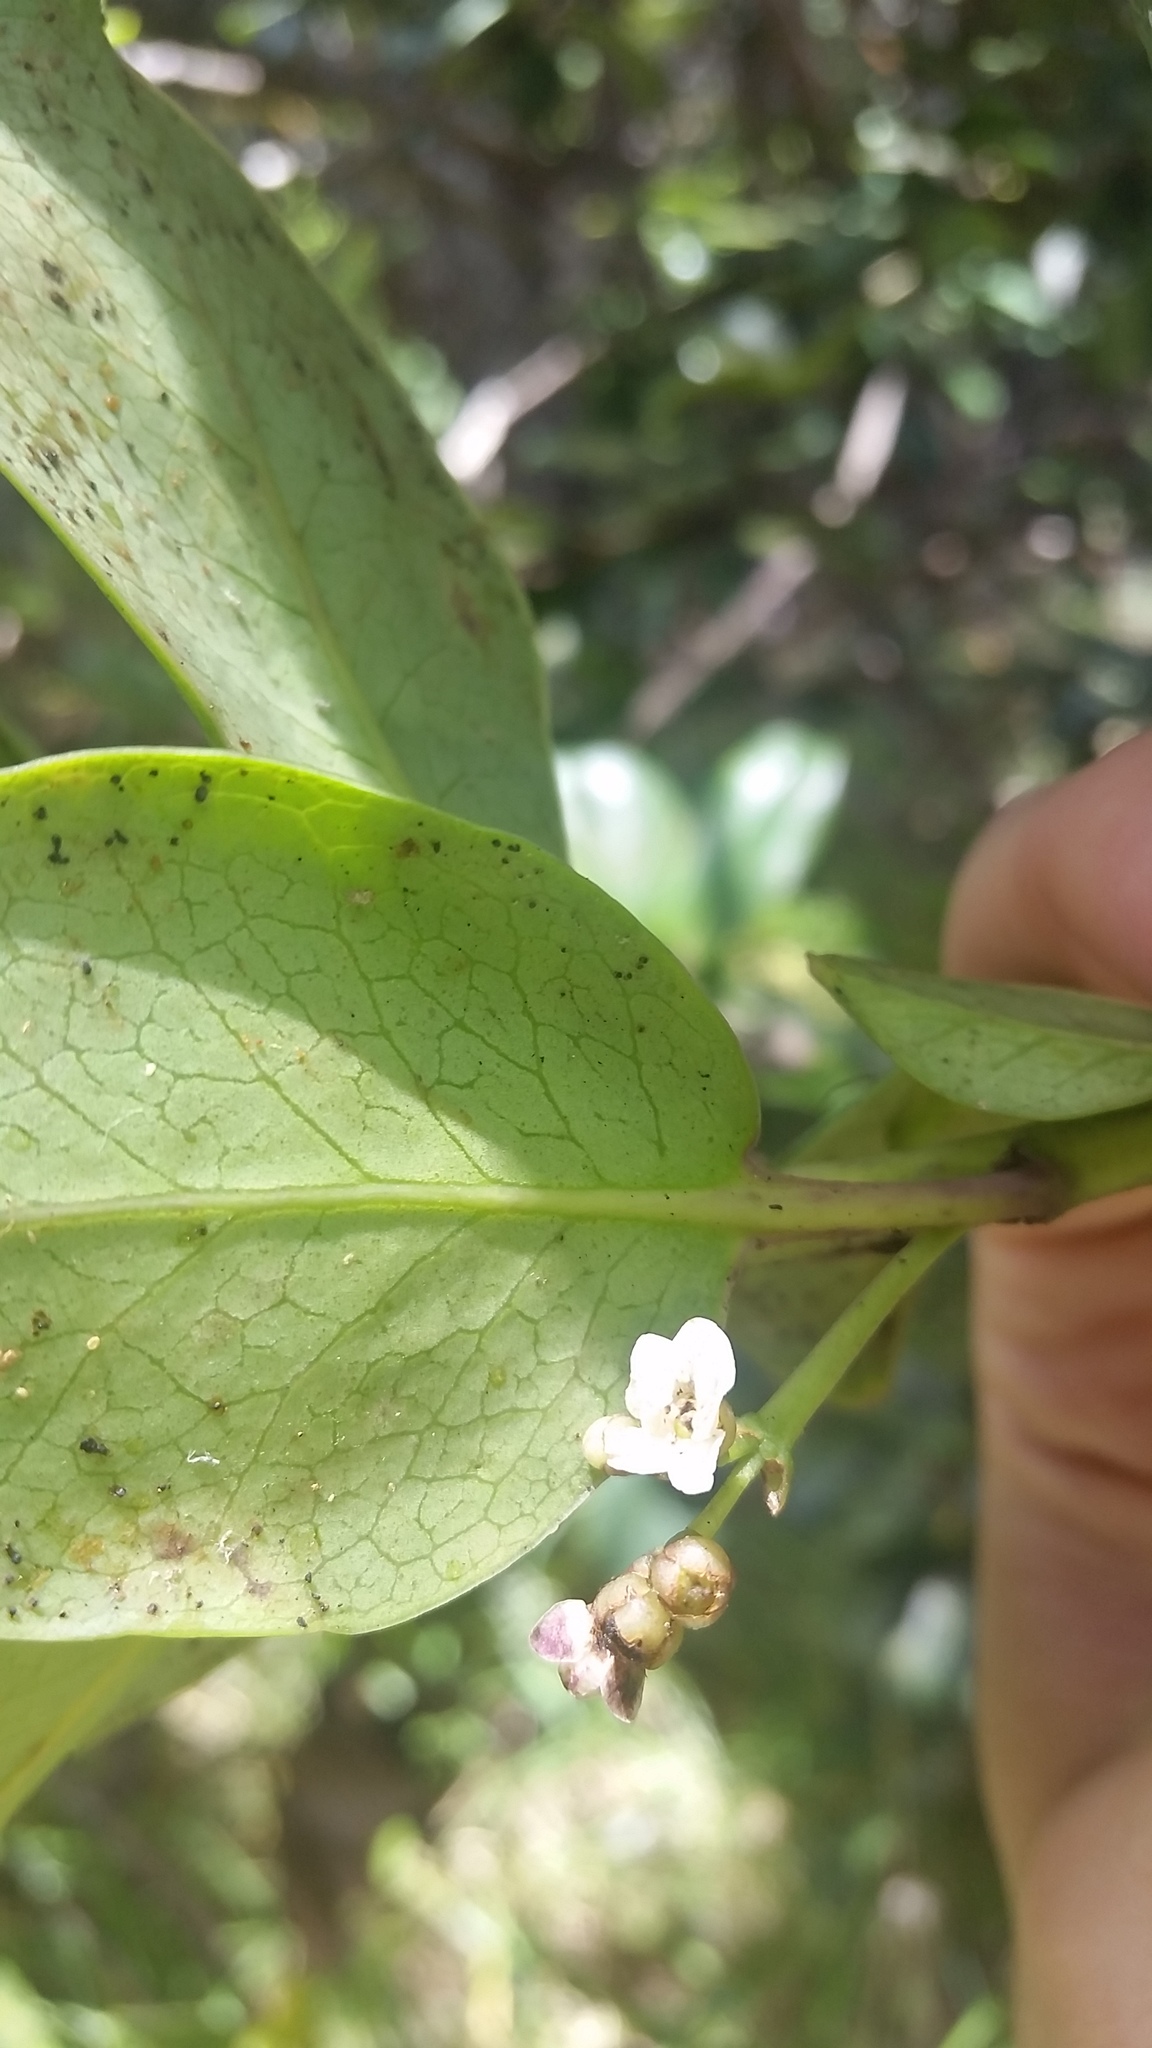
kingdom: Plantae
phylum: Tracheophyta
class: Magnoliopsida
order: Aquifoliales
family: Aquifoliaceae
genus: Ilex
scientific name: Ilex anomala
